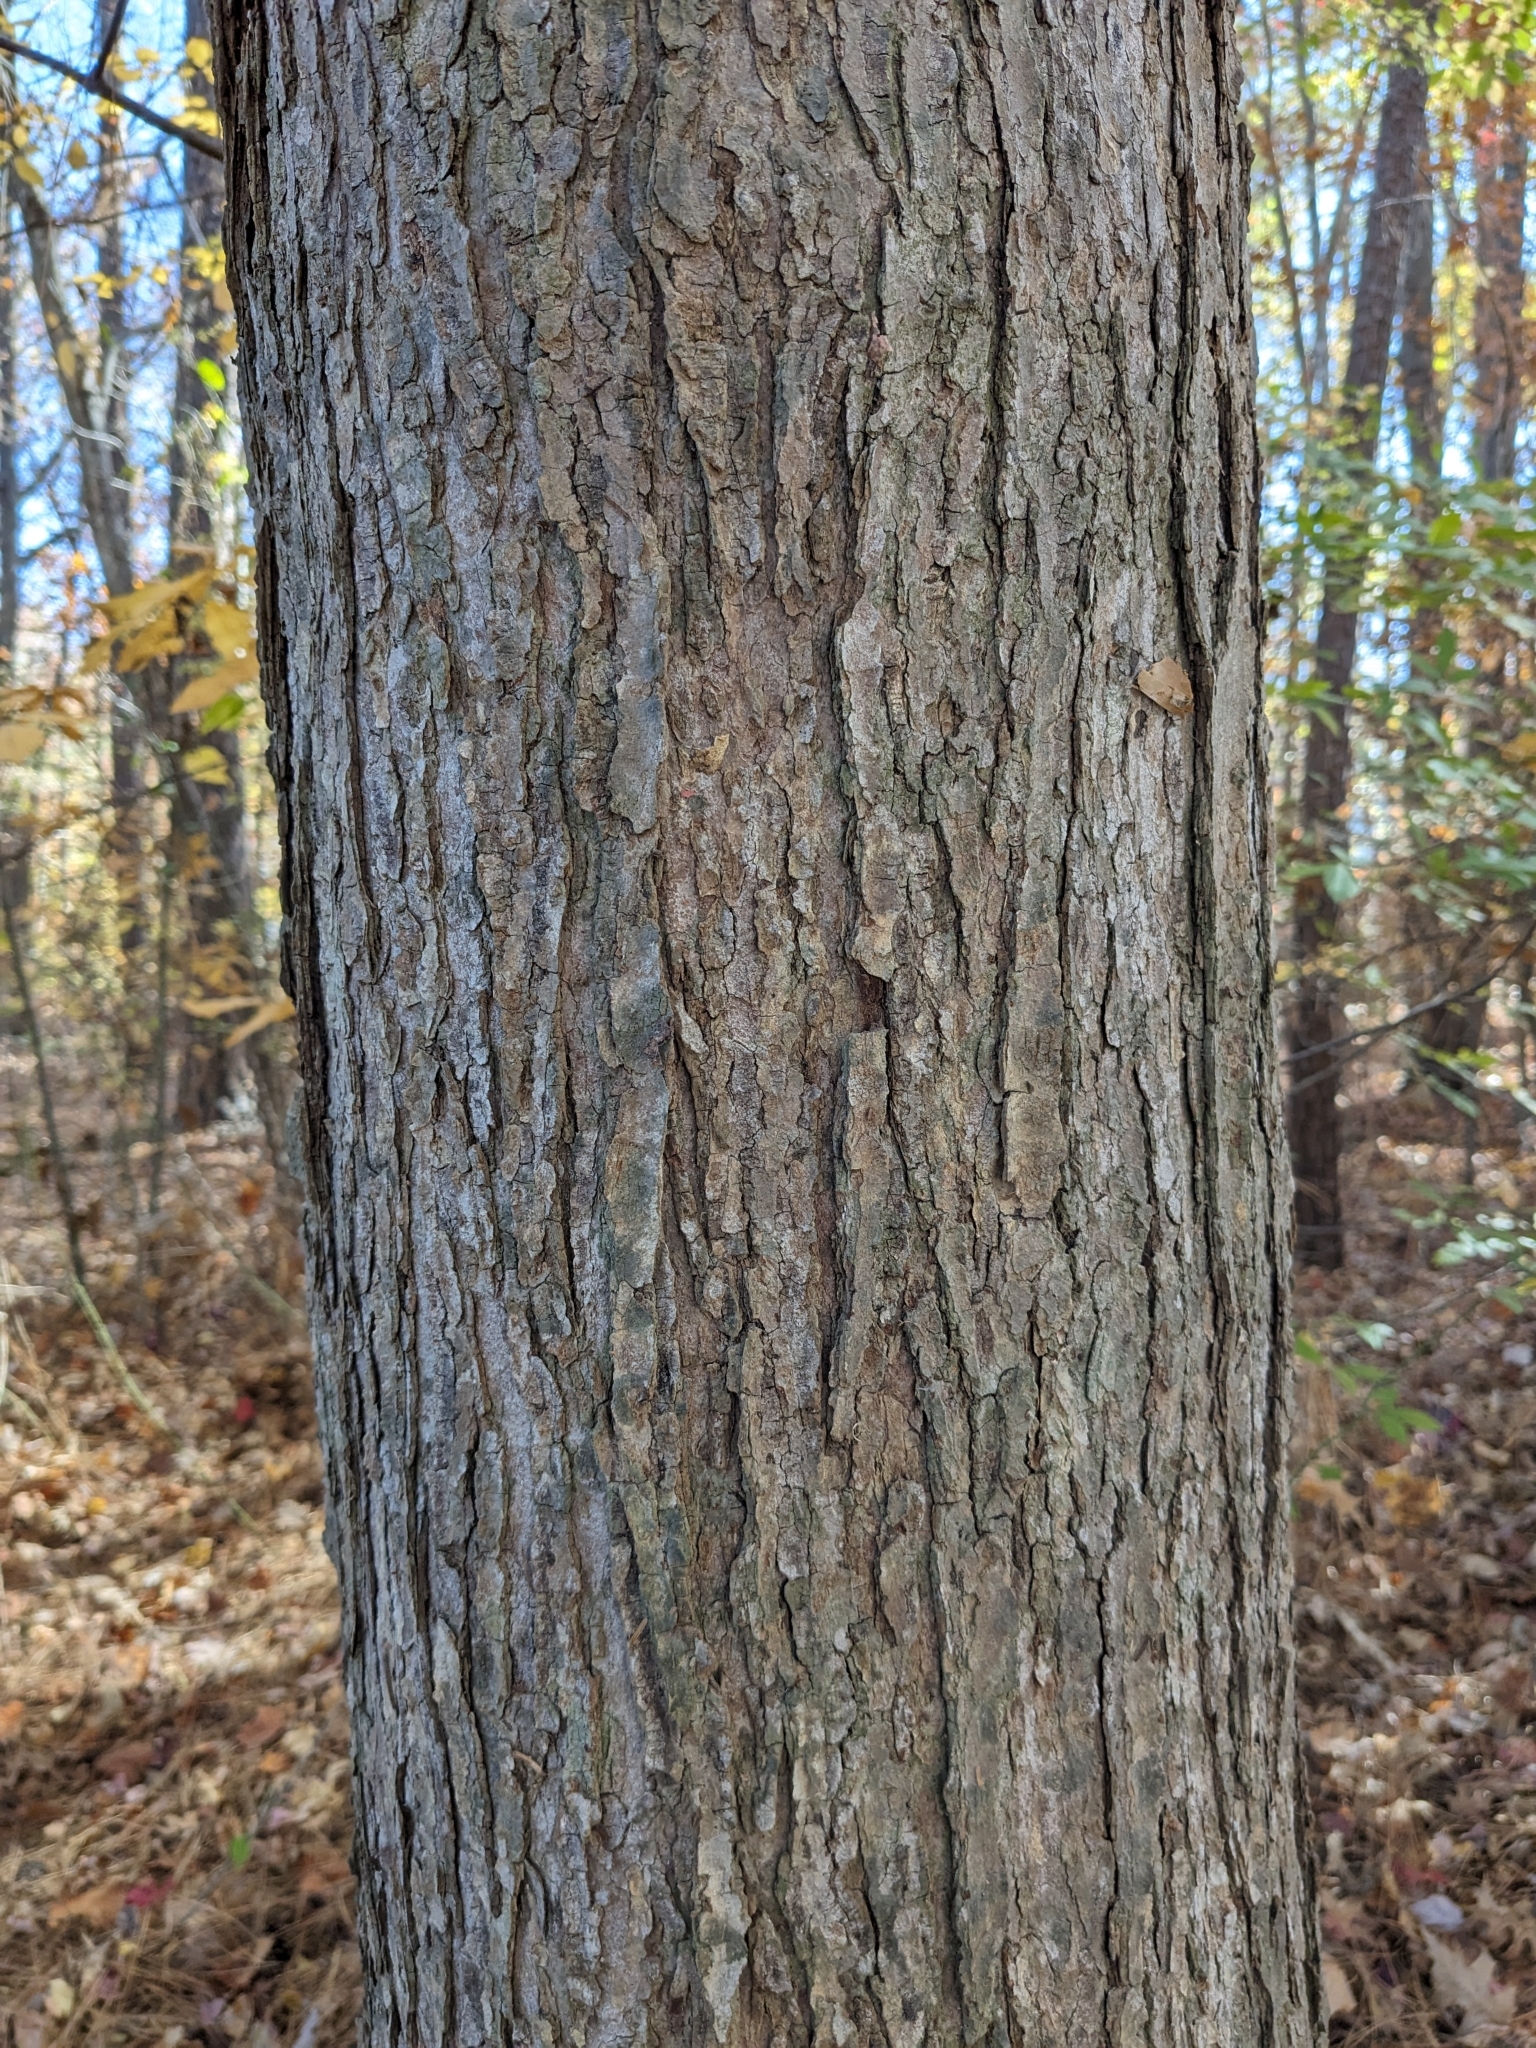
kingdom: Plantae
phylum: Tracheophyta
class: Magnoliopsida
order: Sapindales
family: Sapindaceae
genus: Acer
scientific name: Acer rubrum
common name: Red maple
